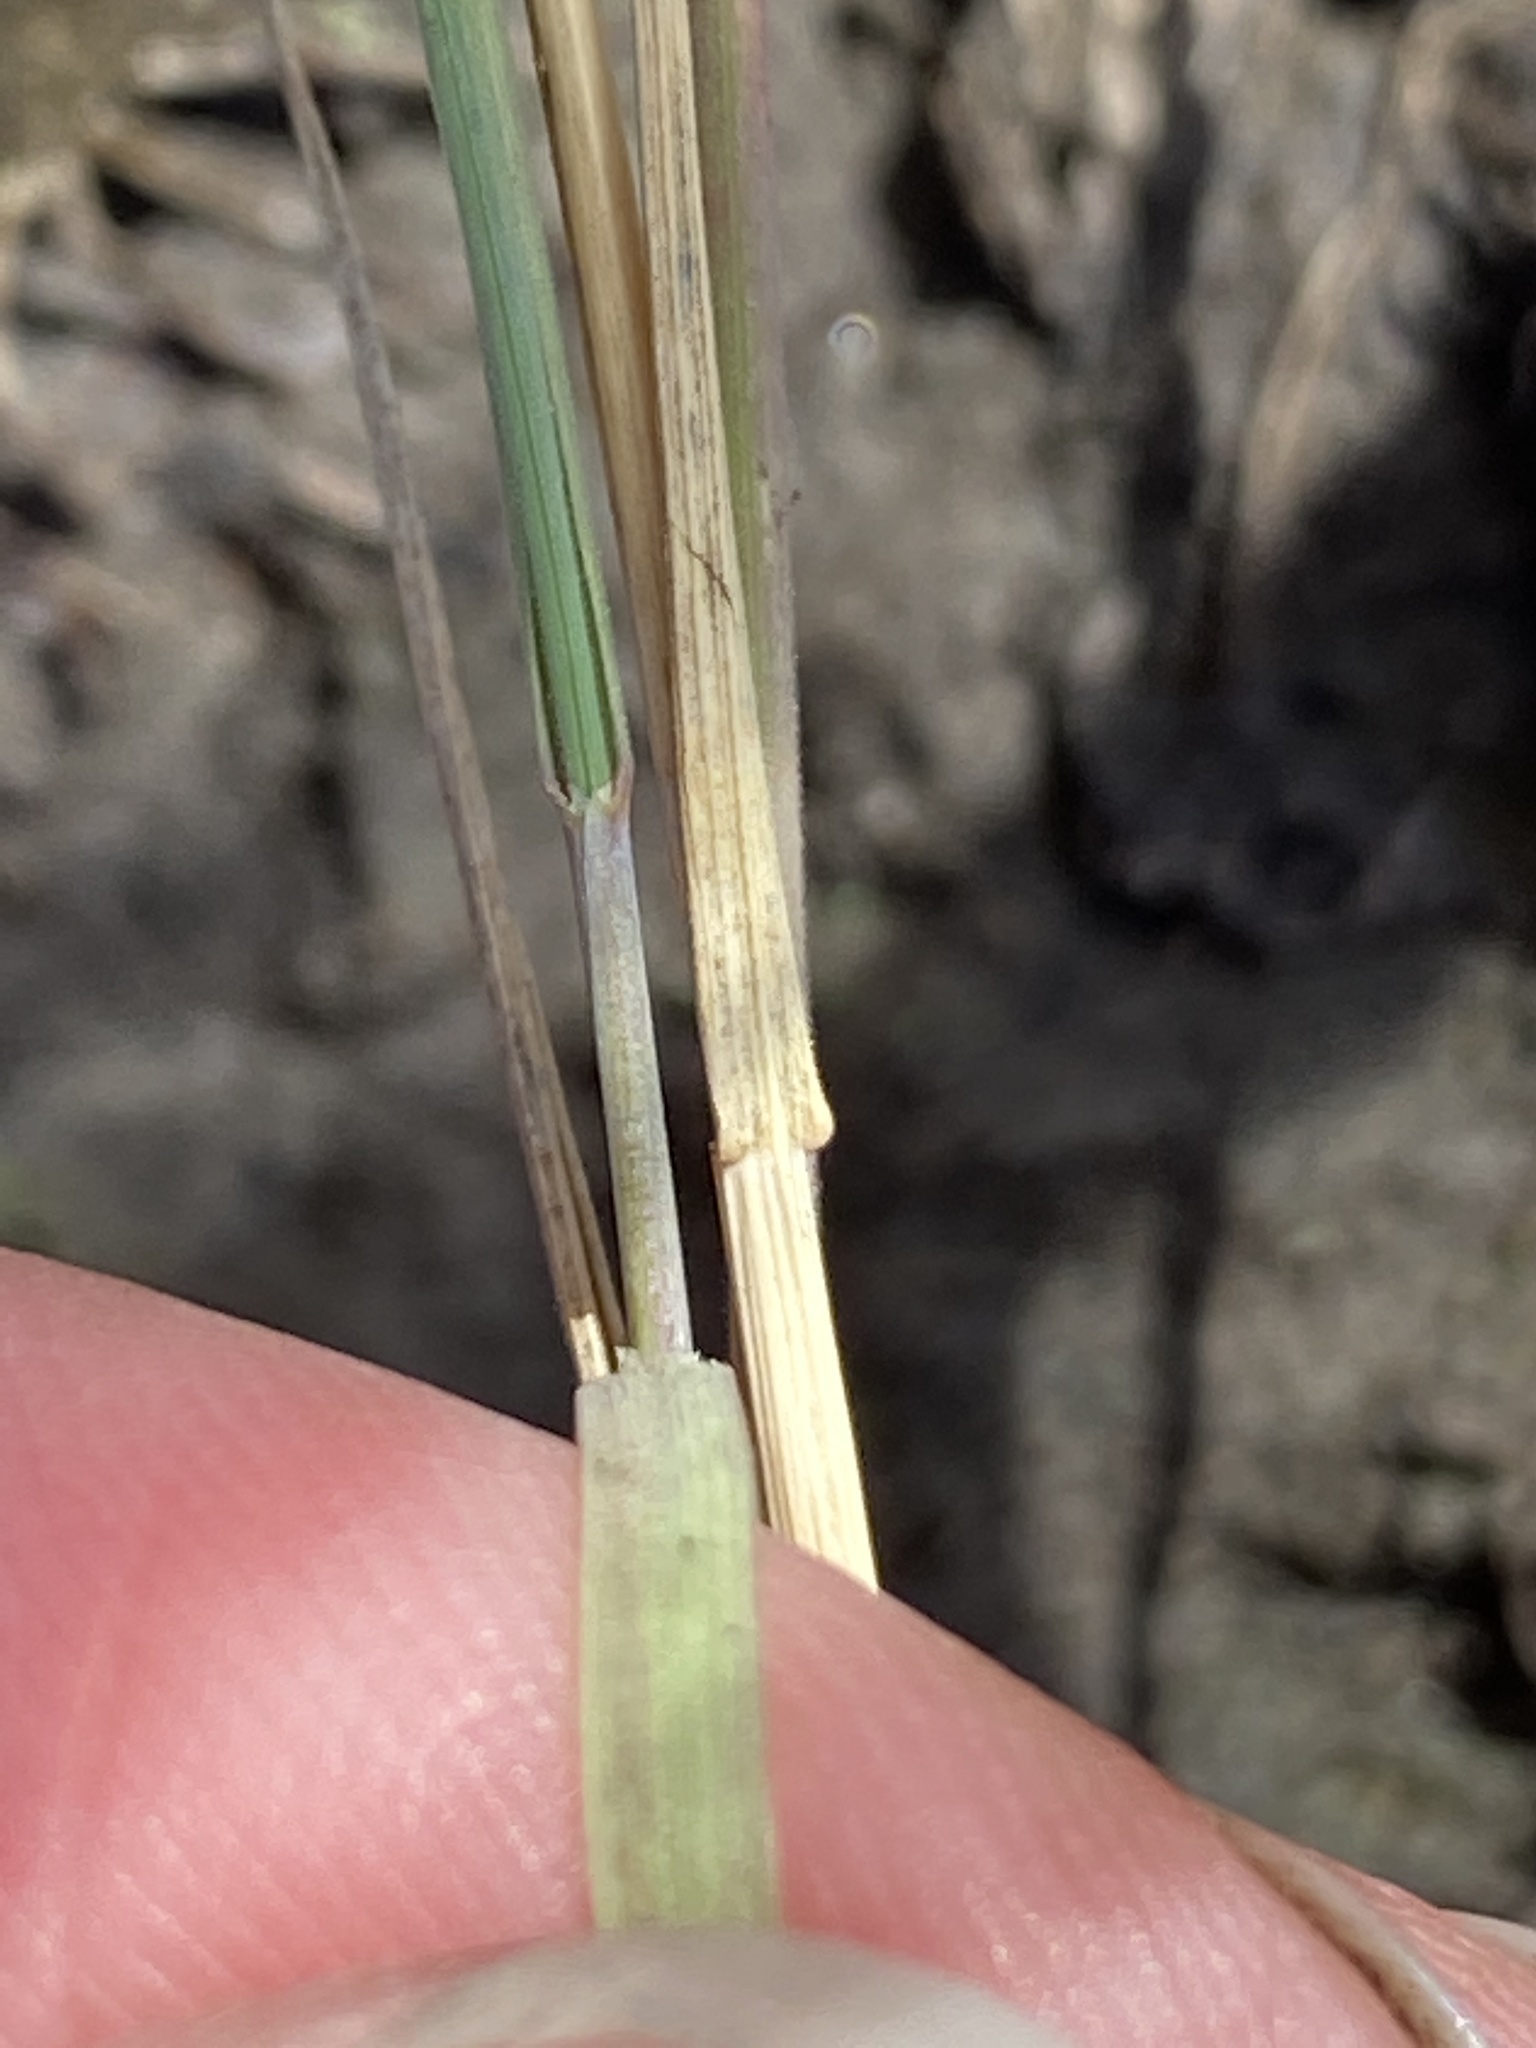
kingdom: Plantae
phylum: Tracheophyta
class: Liliopsida
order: Poales
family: Poaceae
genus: Hordeum
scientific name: Hordeum jubatum
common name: Foxtail barley
